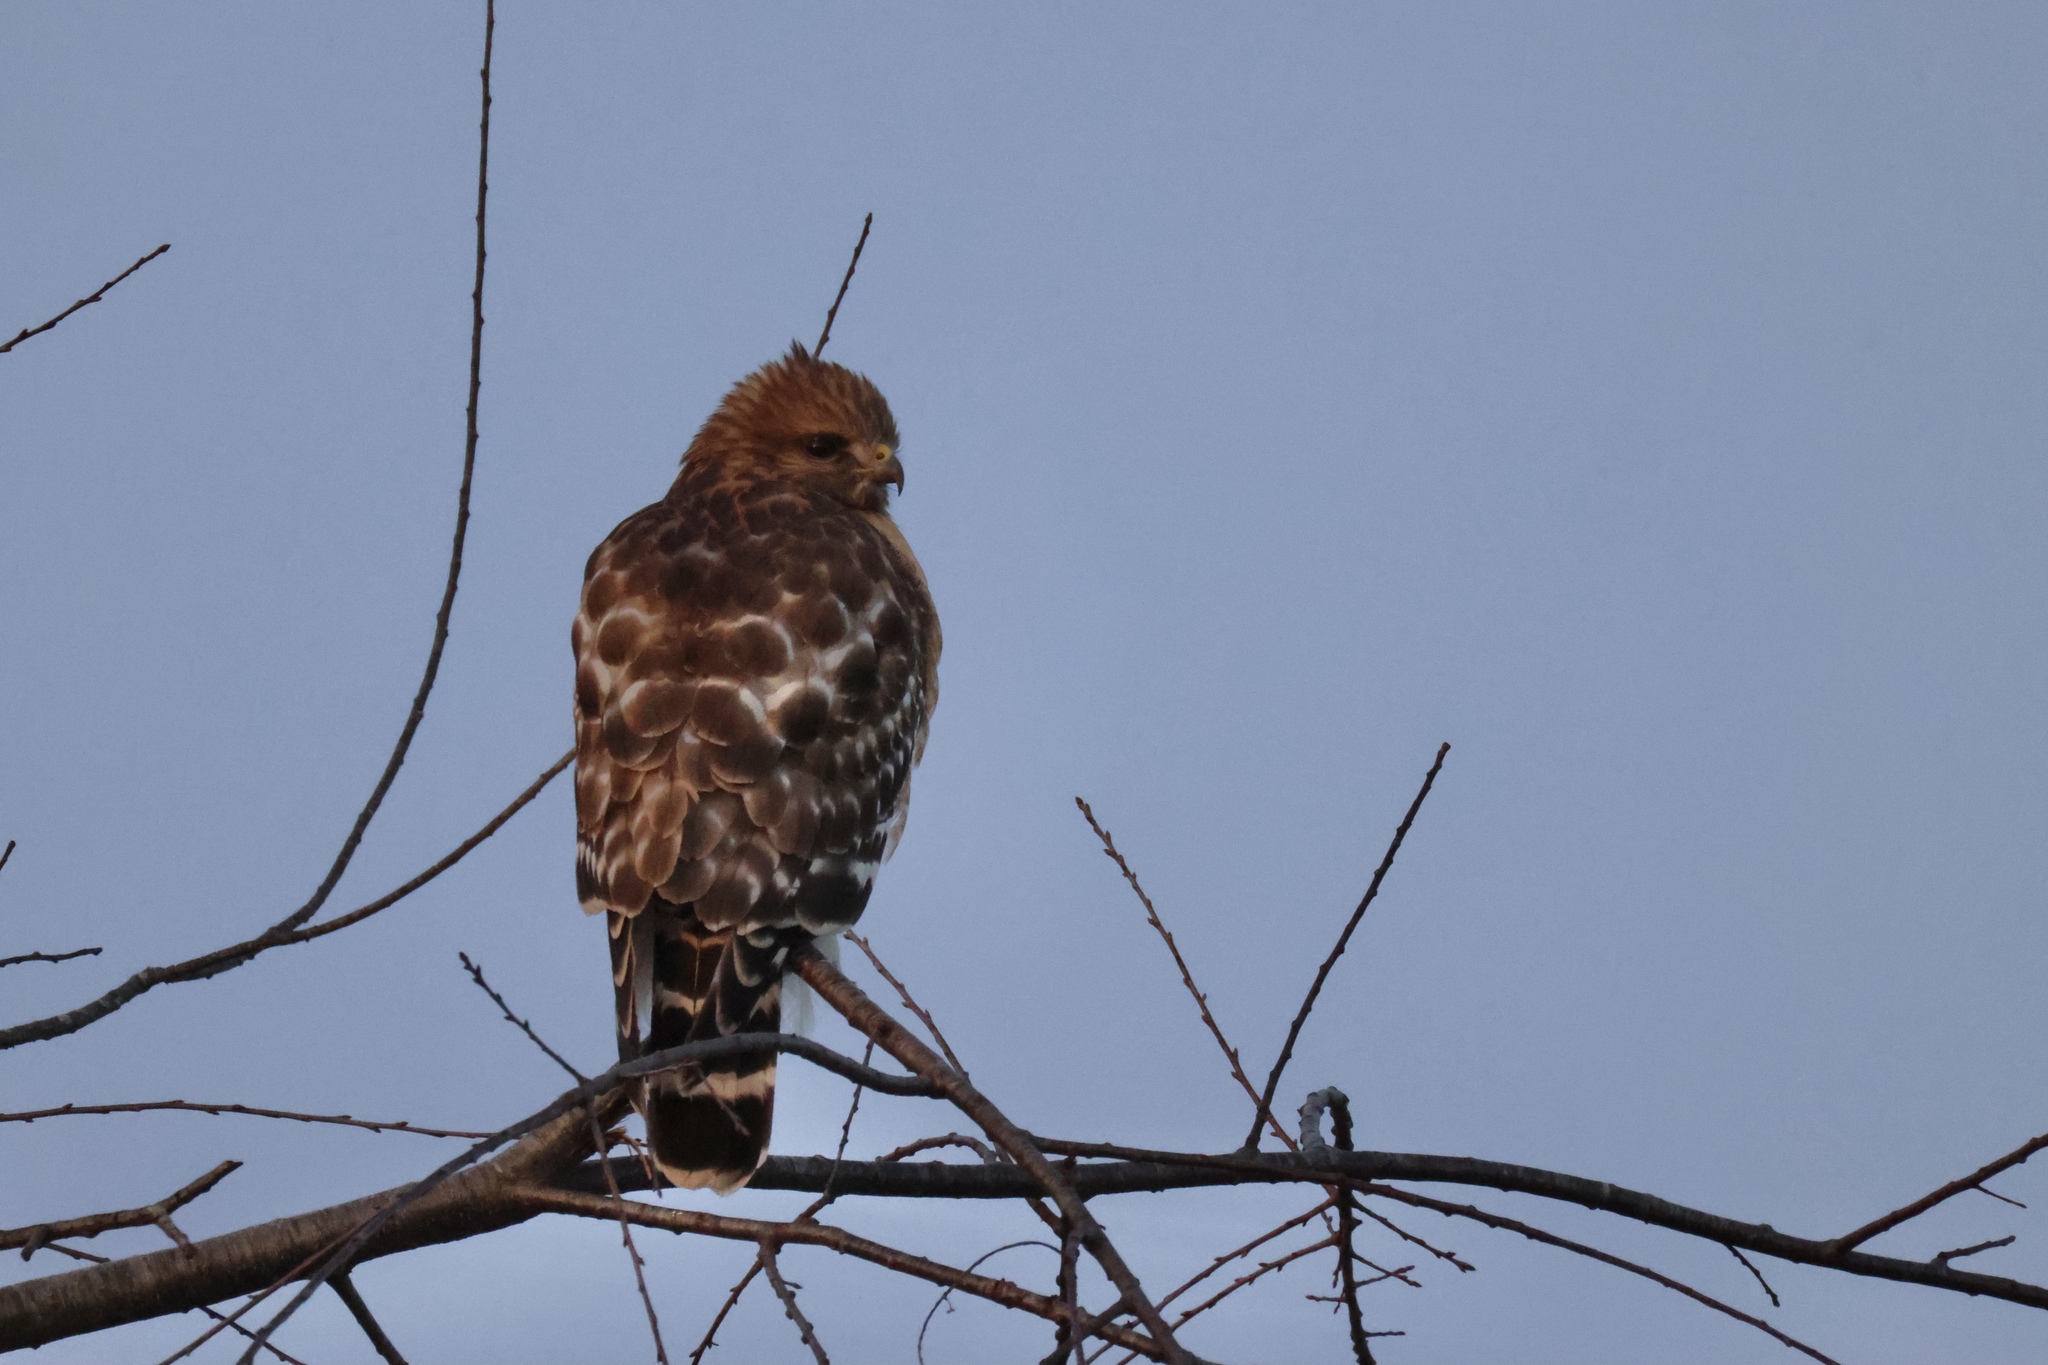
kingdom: Animalia
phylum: Chordata
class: Aves
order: Accipitriformes
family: Accipitridae
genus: Buteo
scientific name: Buteo lineatus
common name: Red-shouldered hawk
